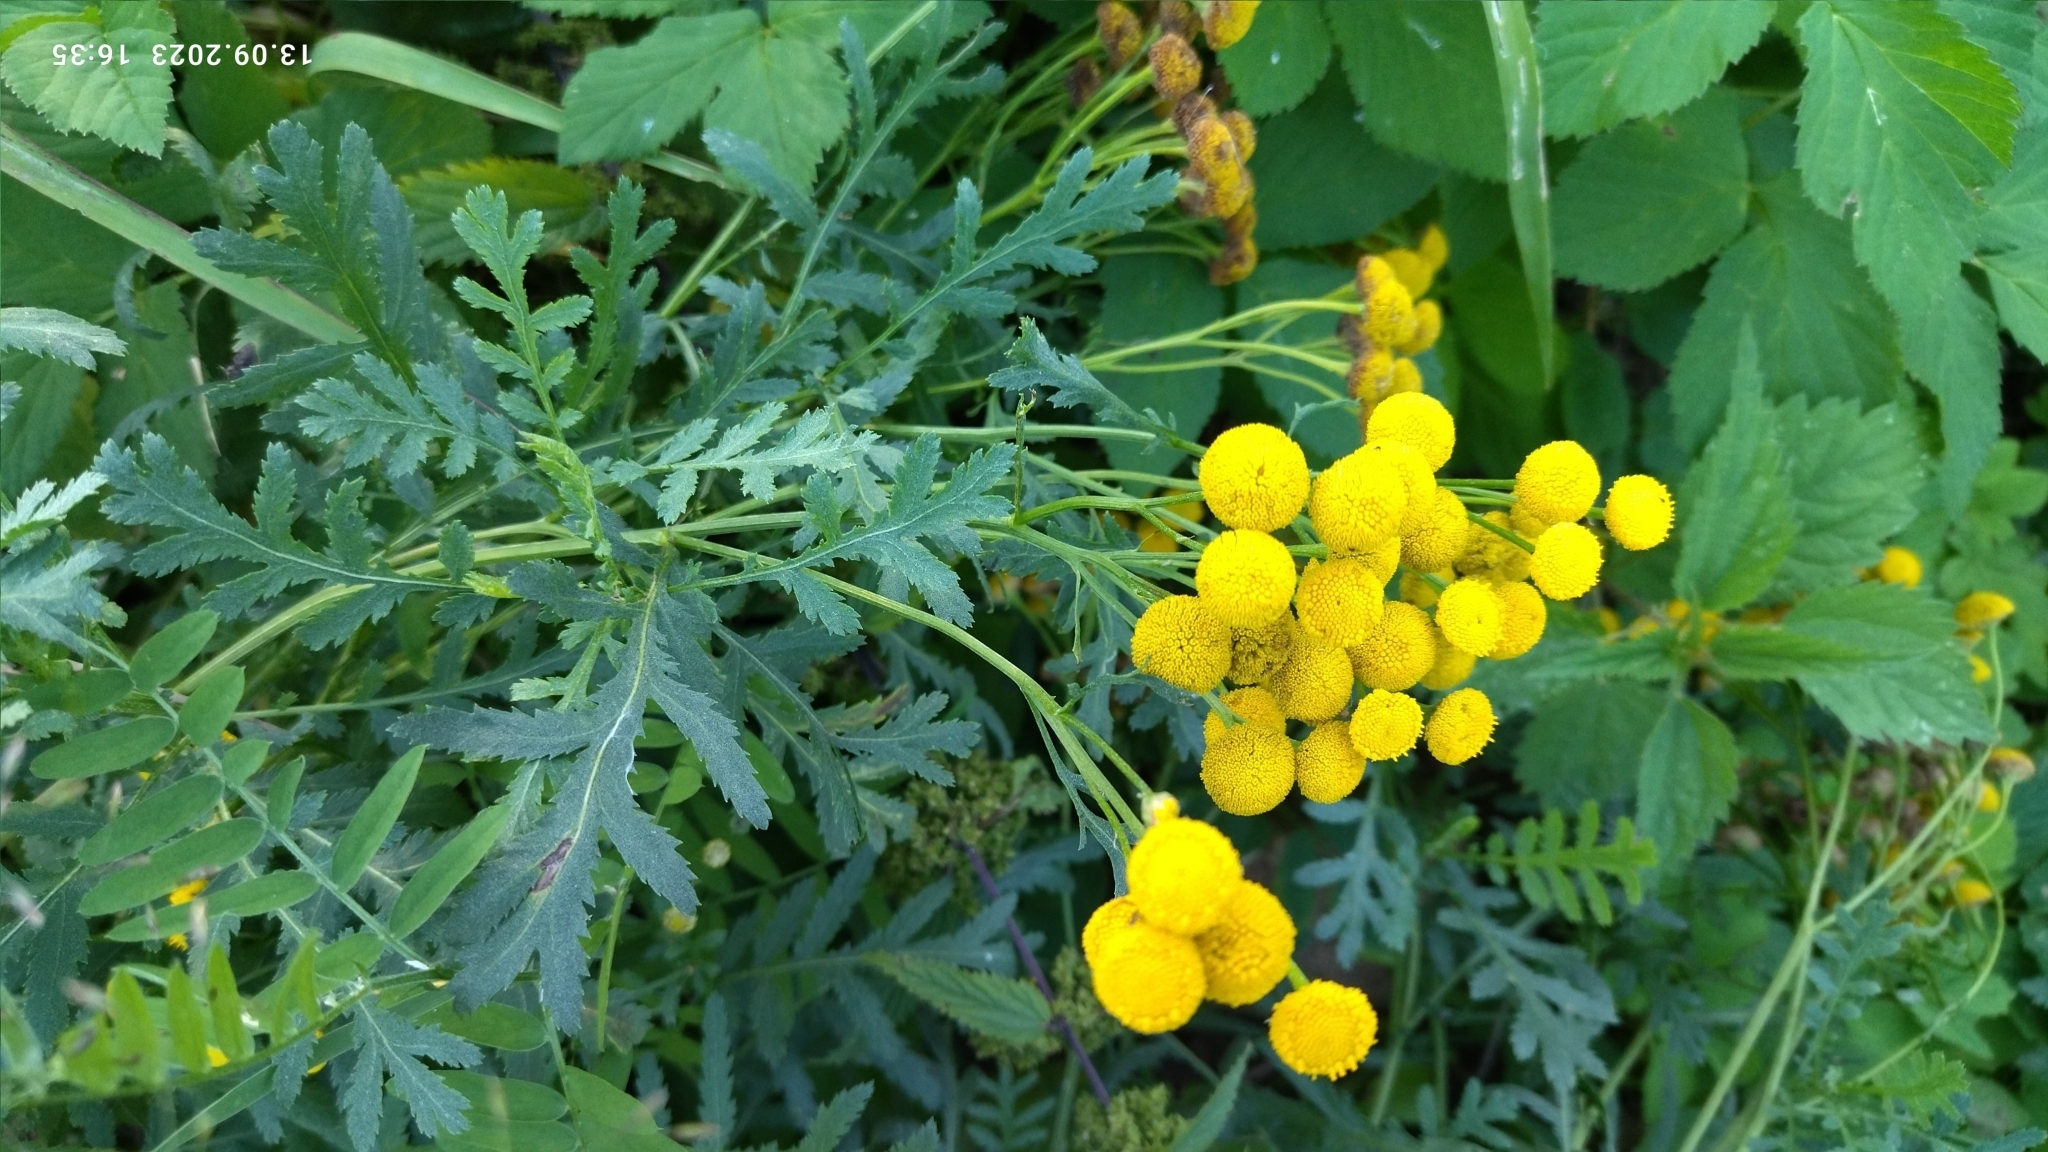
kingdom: Plantae
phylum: Tracheophyta
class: Magnoliopsida
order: Asterales
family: Asteraceae
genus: Tanacetum
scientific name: Tanacetum vulgare
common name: Common tansy
